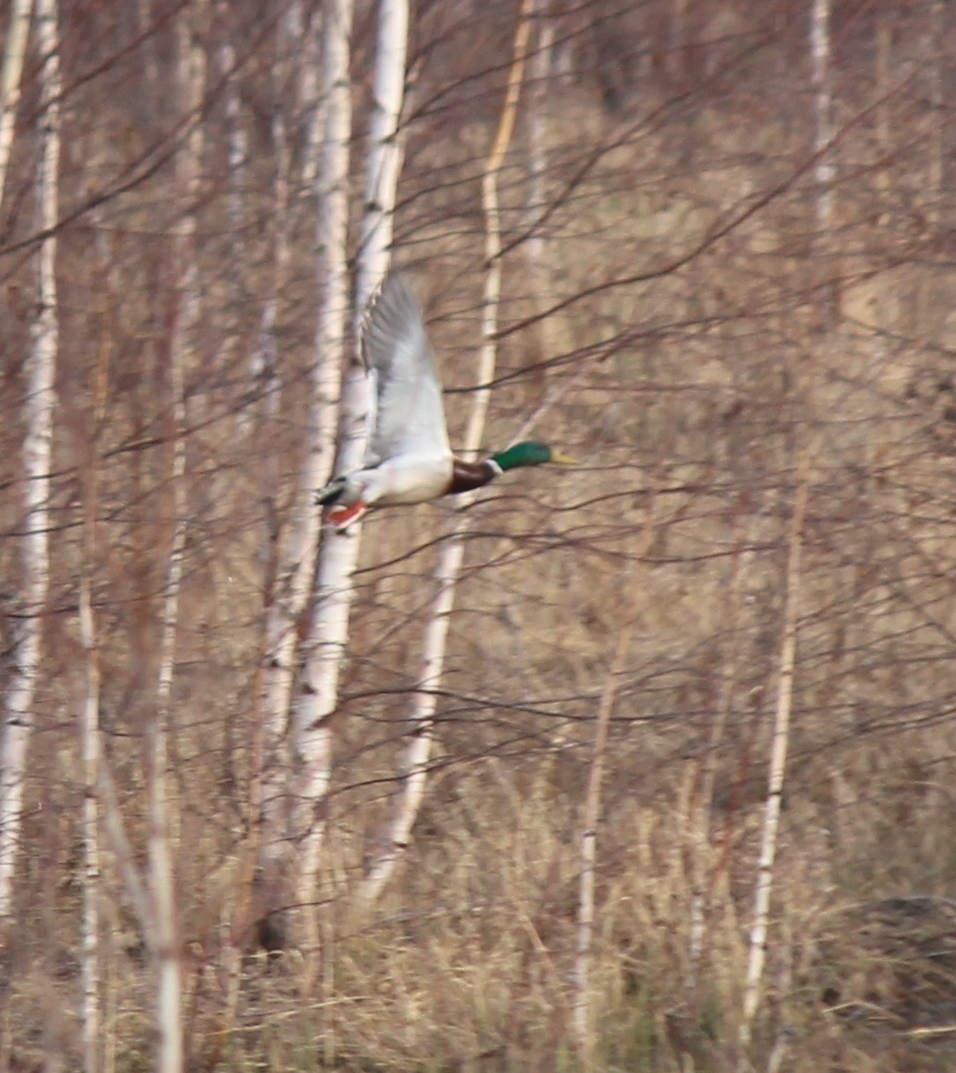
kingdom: Animalia
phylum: Chordata
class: Aves
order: Anseriformes
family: Anatidae
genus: Anas
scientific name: Anas platyrhynchos
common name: Mallard
